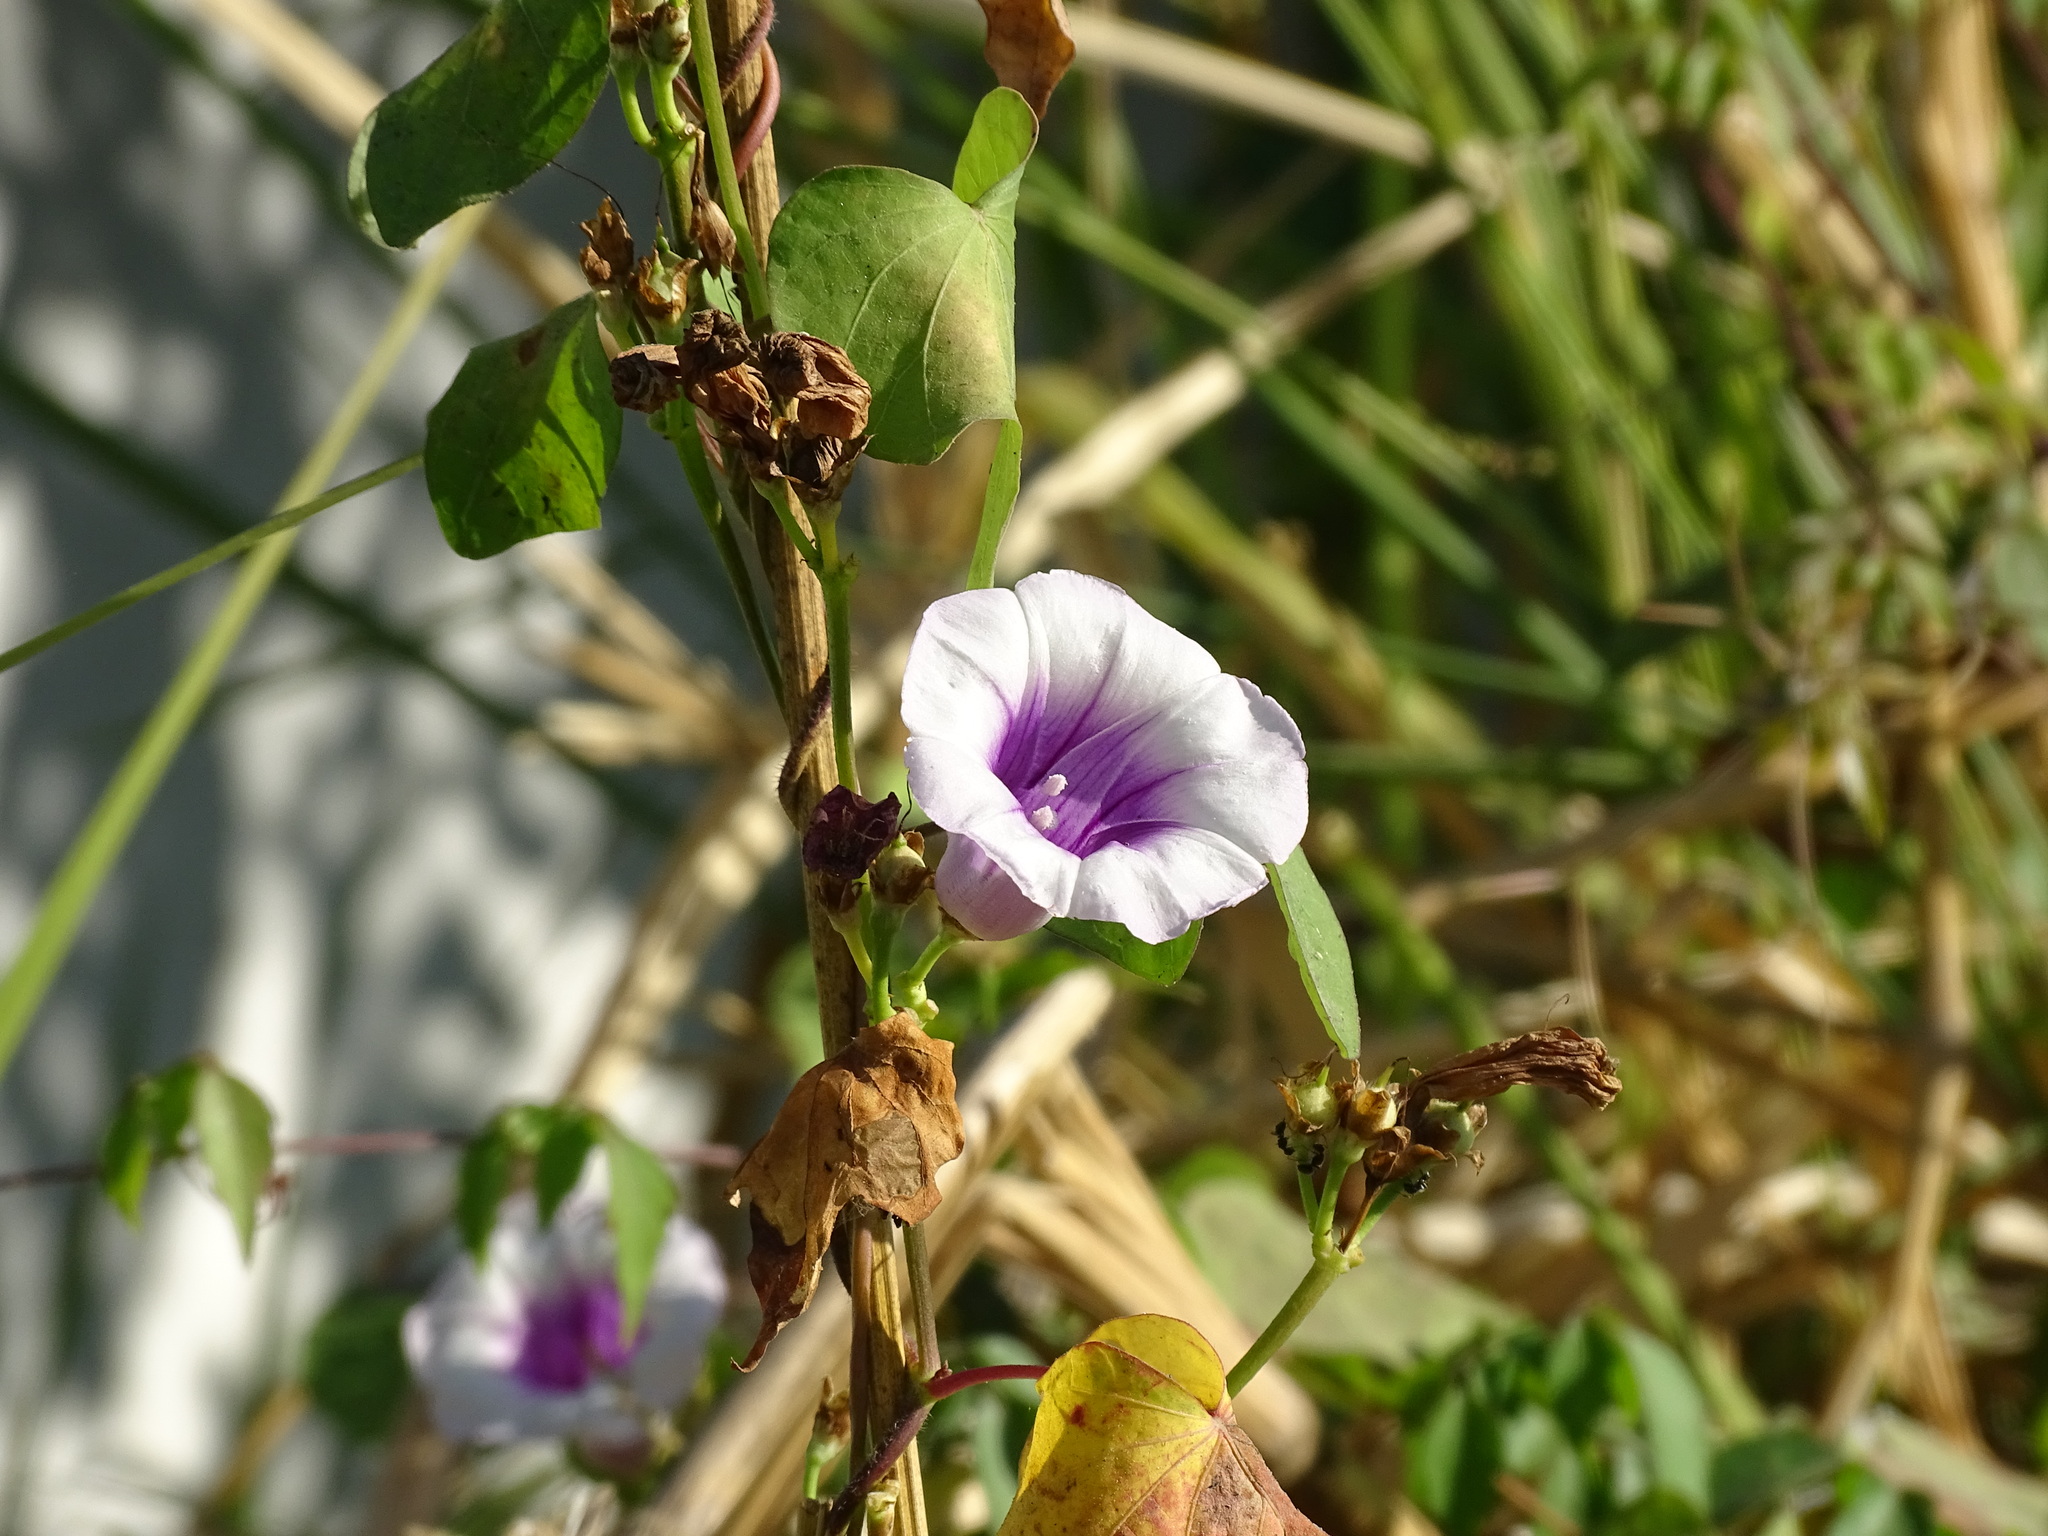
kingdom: Plantae
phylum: Tracheophyta
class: Magnoliopsida
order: Solanales
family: Convolvulaceae
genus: Ipomoea
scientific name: Ipomoea batatas
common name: Sweet-potato
